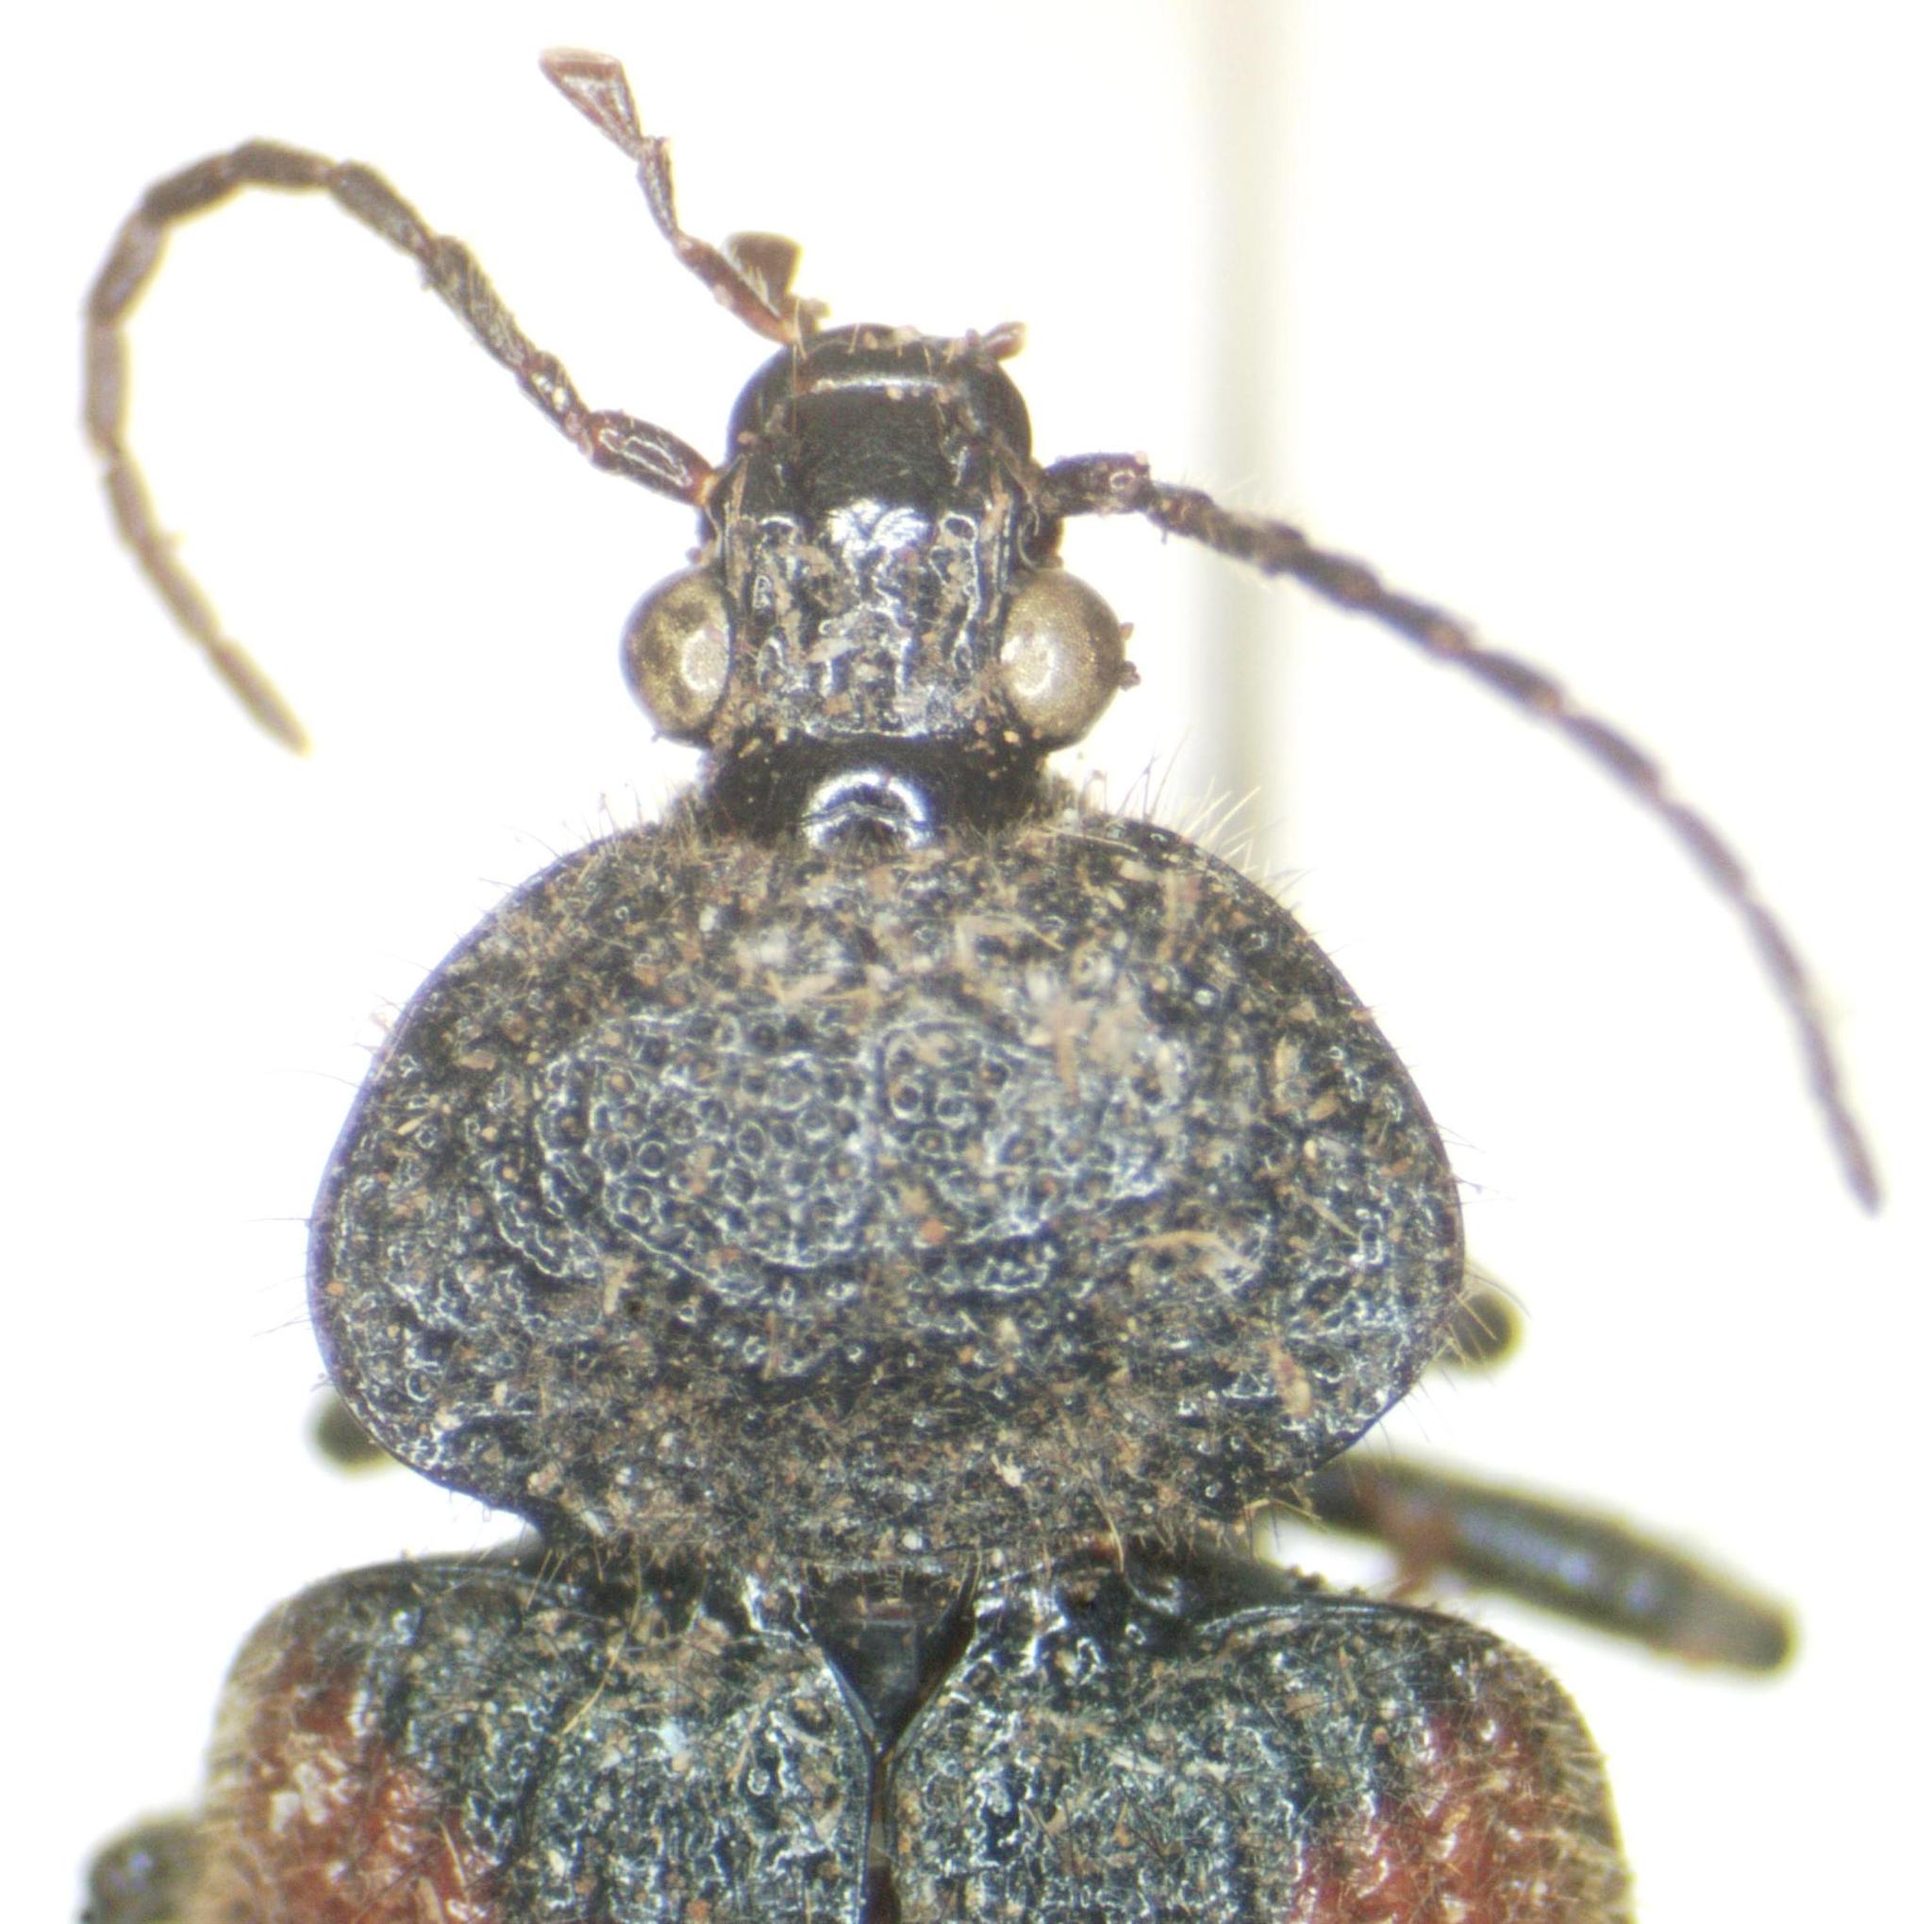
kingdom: Animalia
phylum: Arthropoda
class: Insecta
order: Coleoptera
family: Carabidae
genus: Panagaeus
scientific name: Panagaeus sallei
